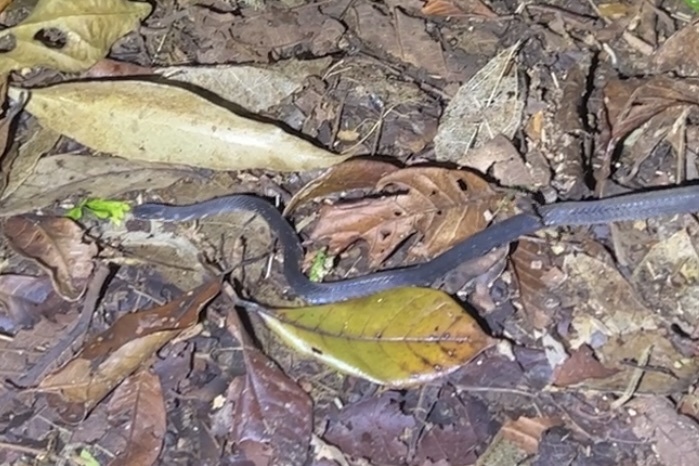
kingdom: Animalia
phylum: Chordata
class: Squamata
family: Colubridae
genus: Ninia
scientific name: Ninia psephota
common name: Cope's coffee snake
